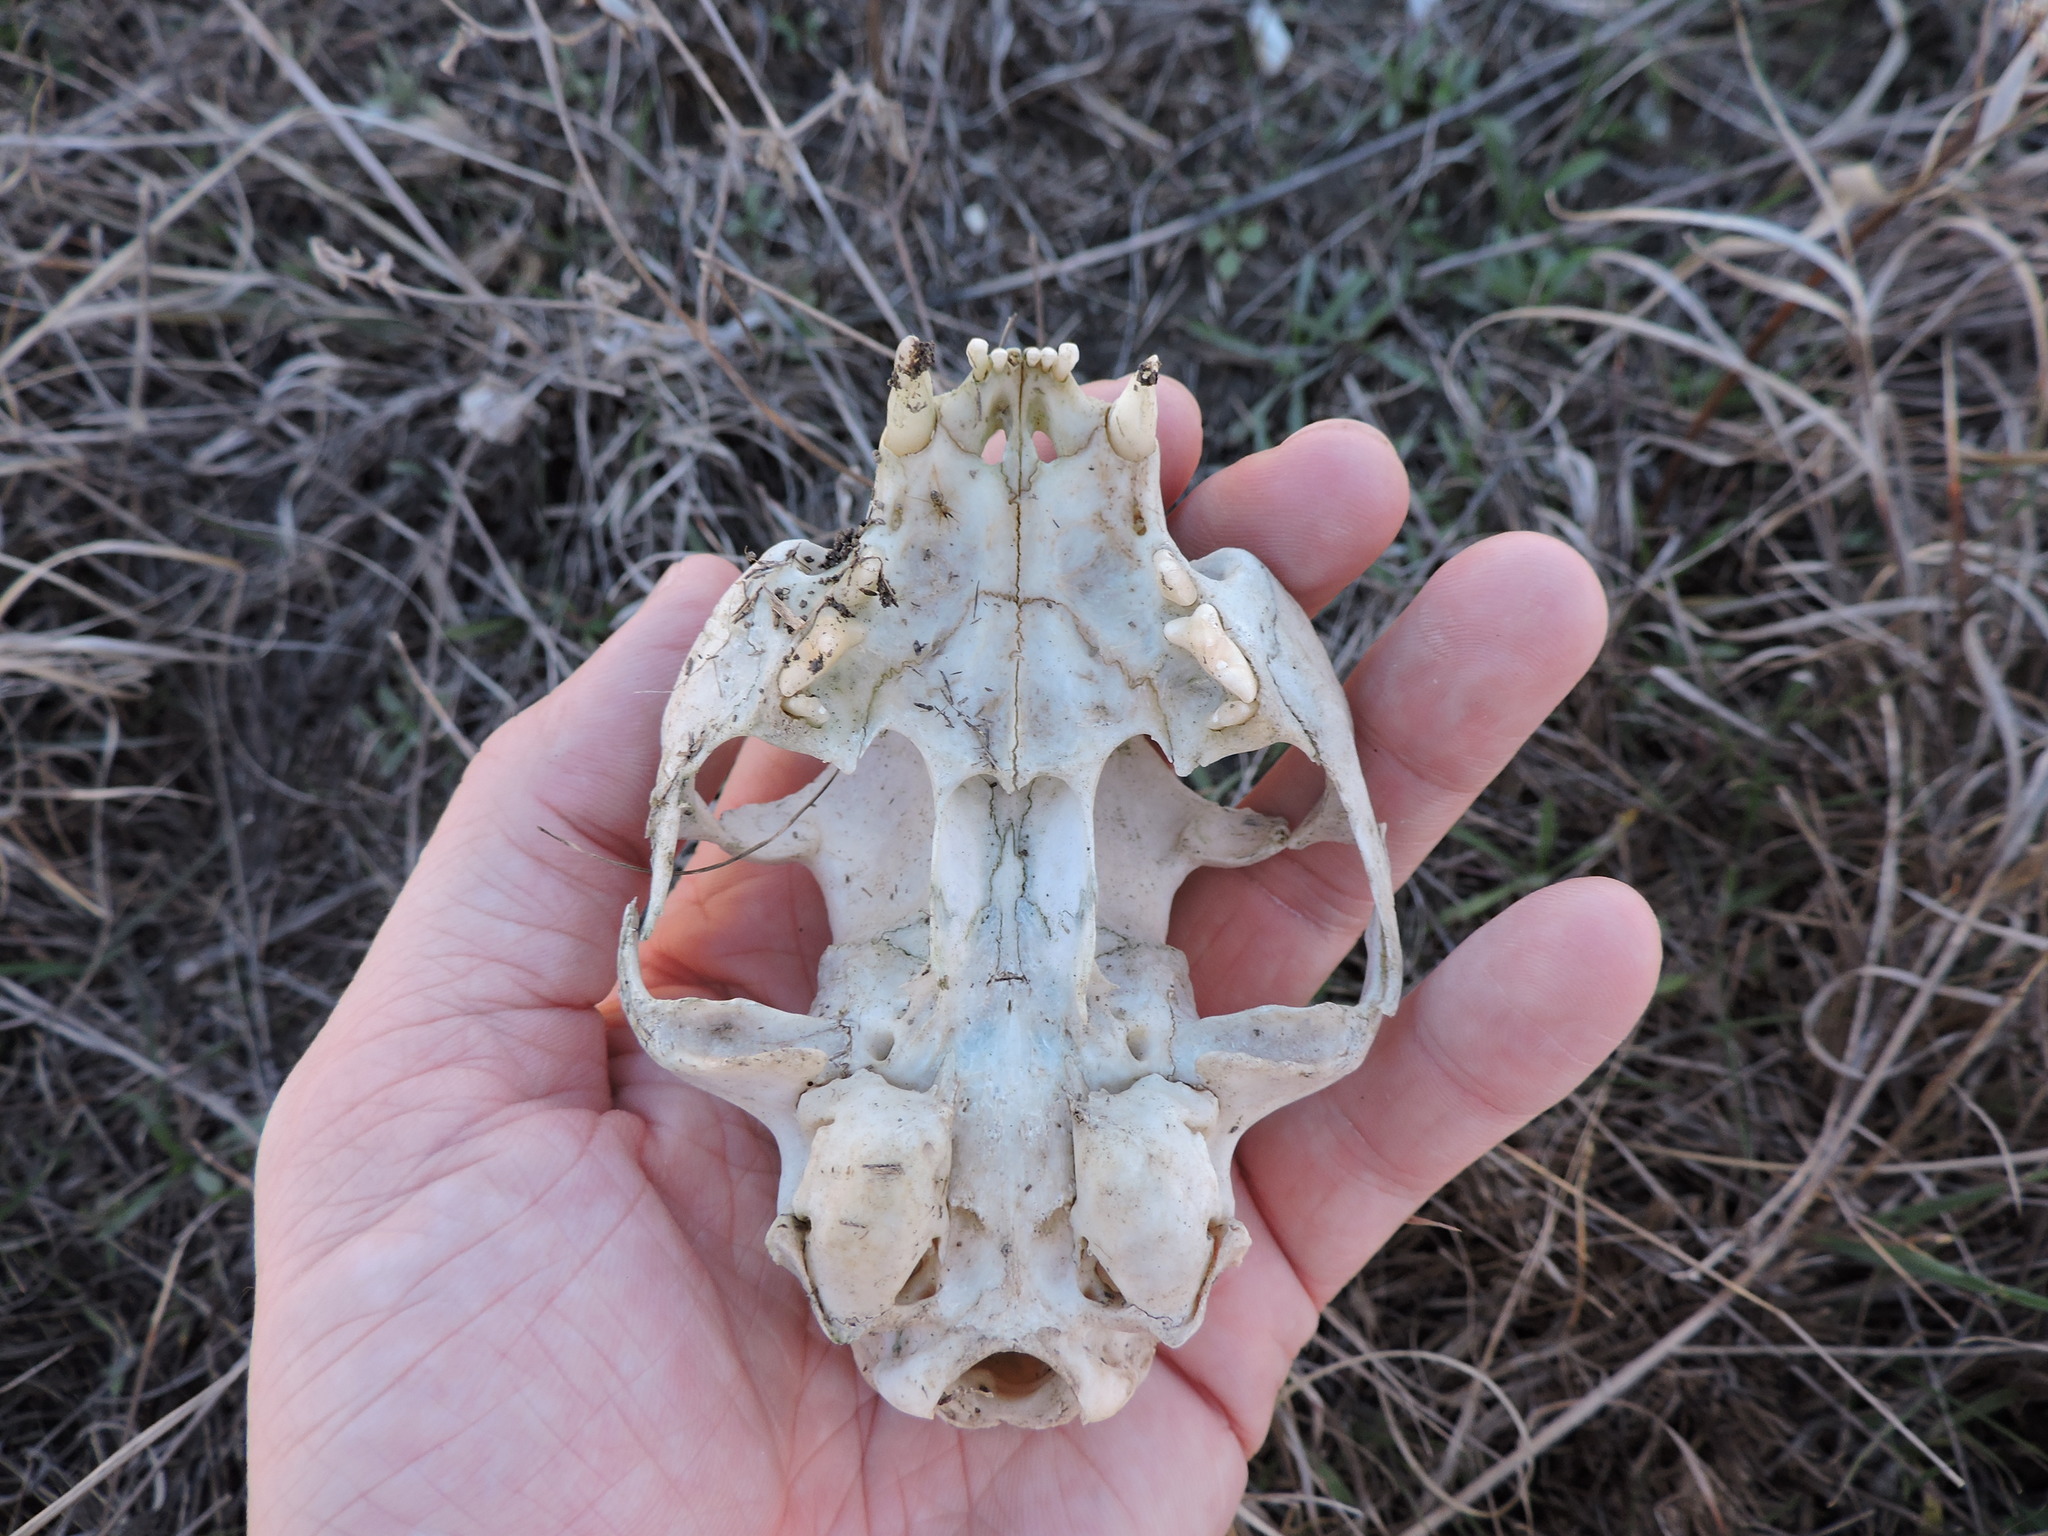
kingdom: Animalia
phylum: Chordata
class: Mammalia
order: Carnivora
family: Felidae
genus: Felis
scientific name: Felis catus
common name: Domestic cat
